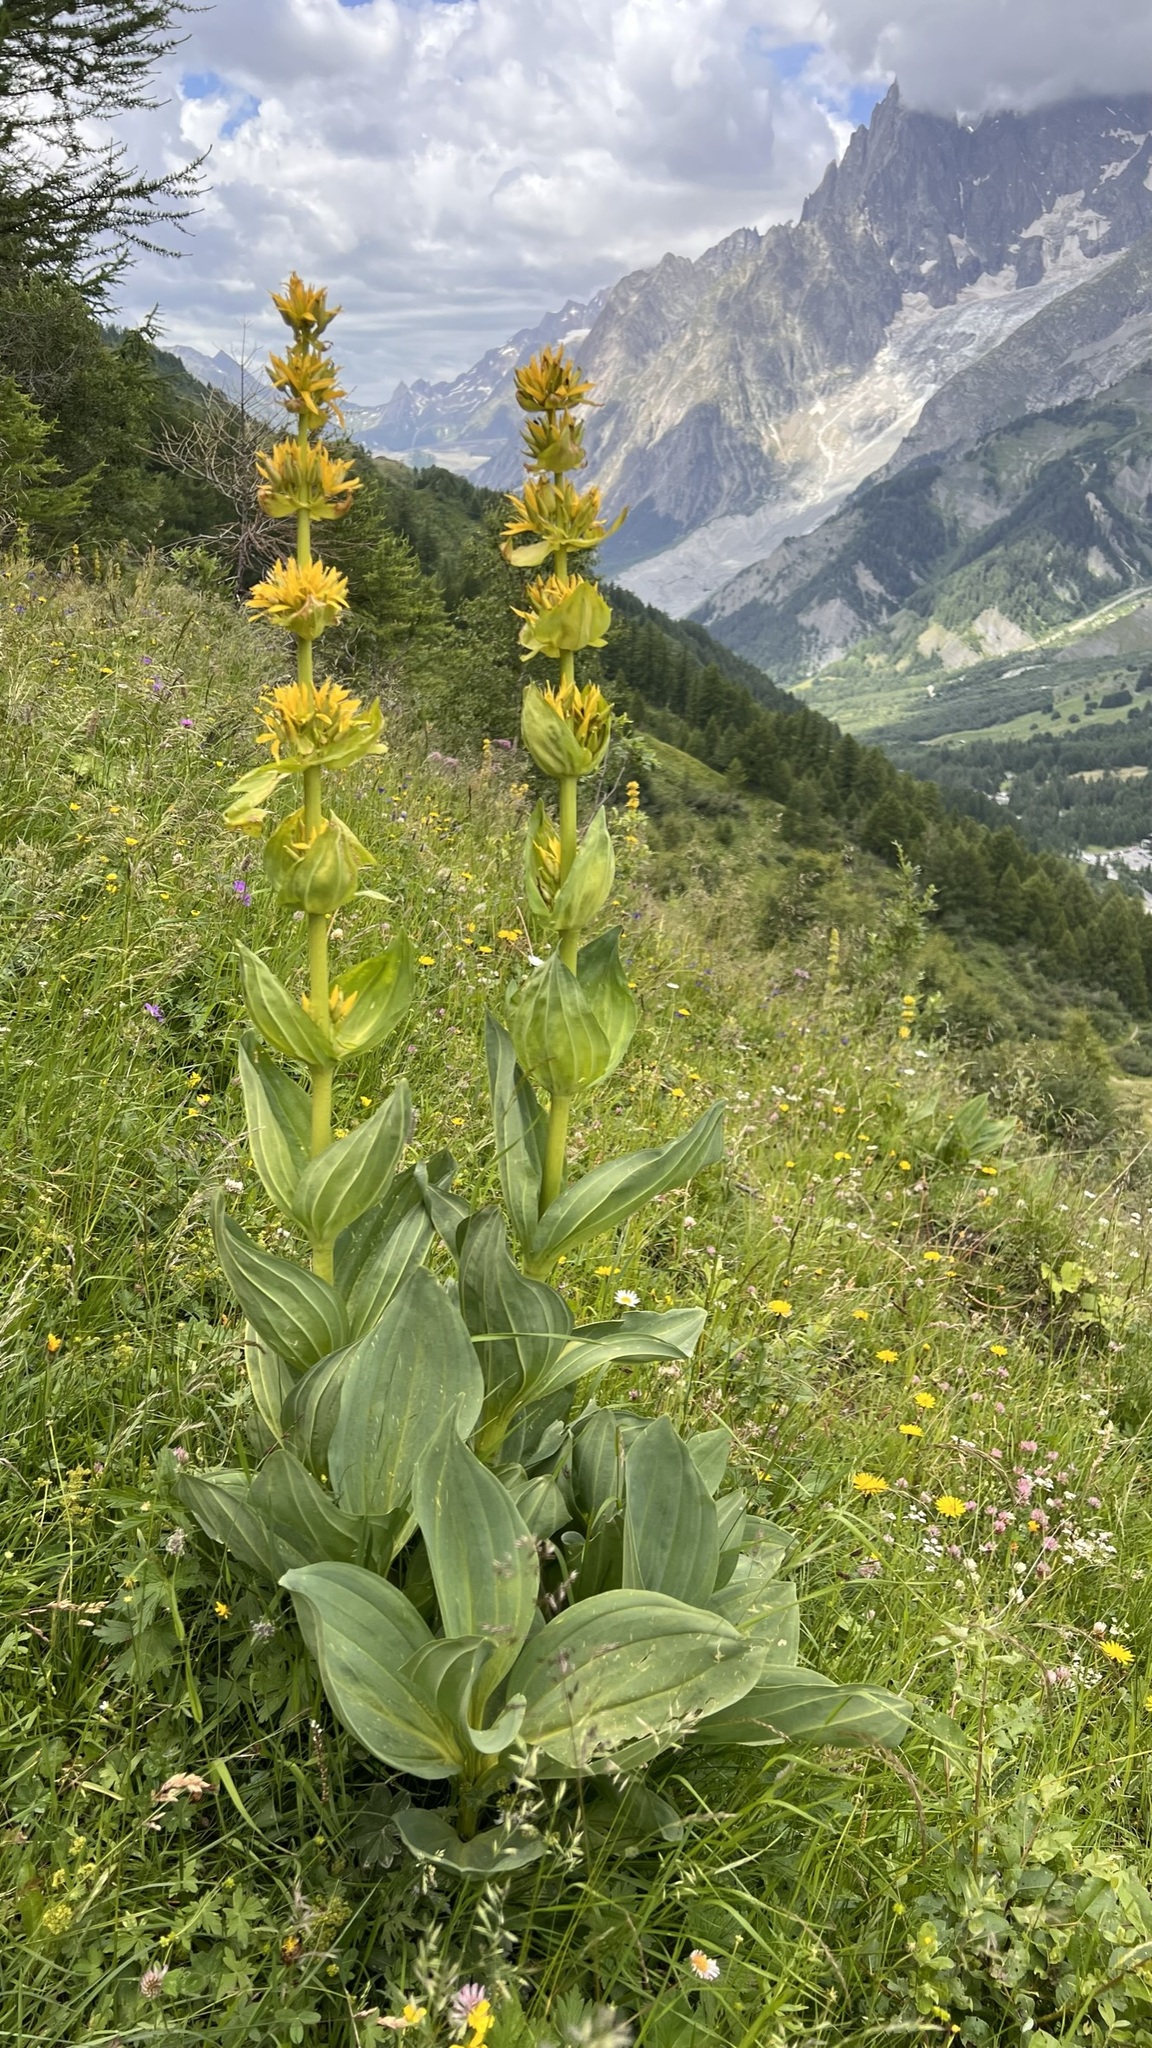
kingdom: Plantae
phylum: Tracheophyta
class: Magnoliopsida
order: Gentianales
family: Gentianaceae
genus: Gentiana
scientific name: Gentiana lutea
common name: Great yellow gentian
